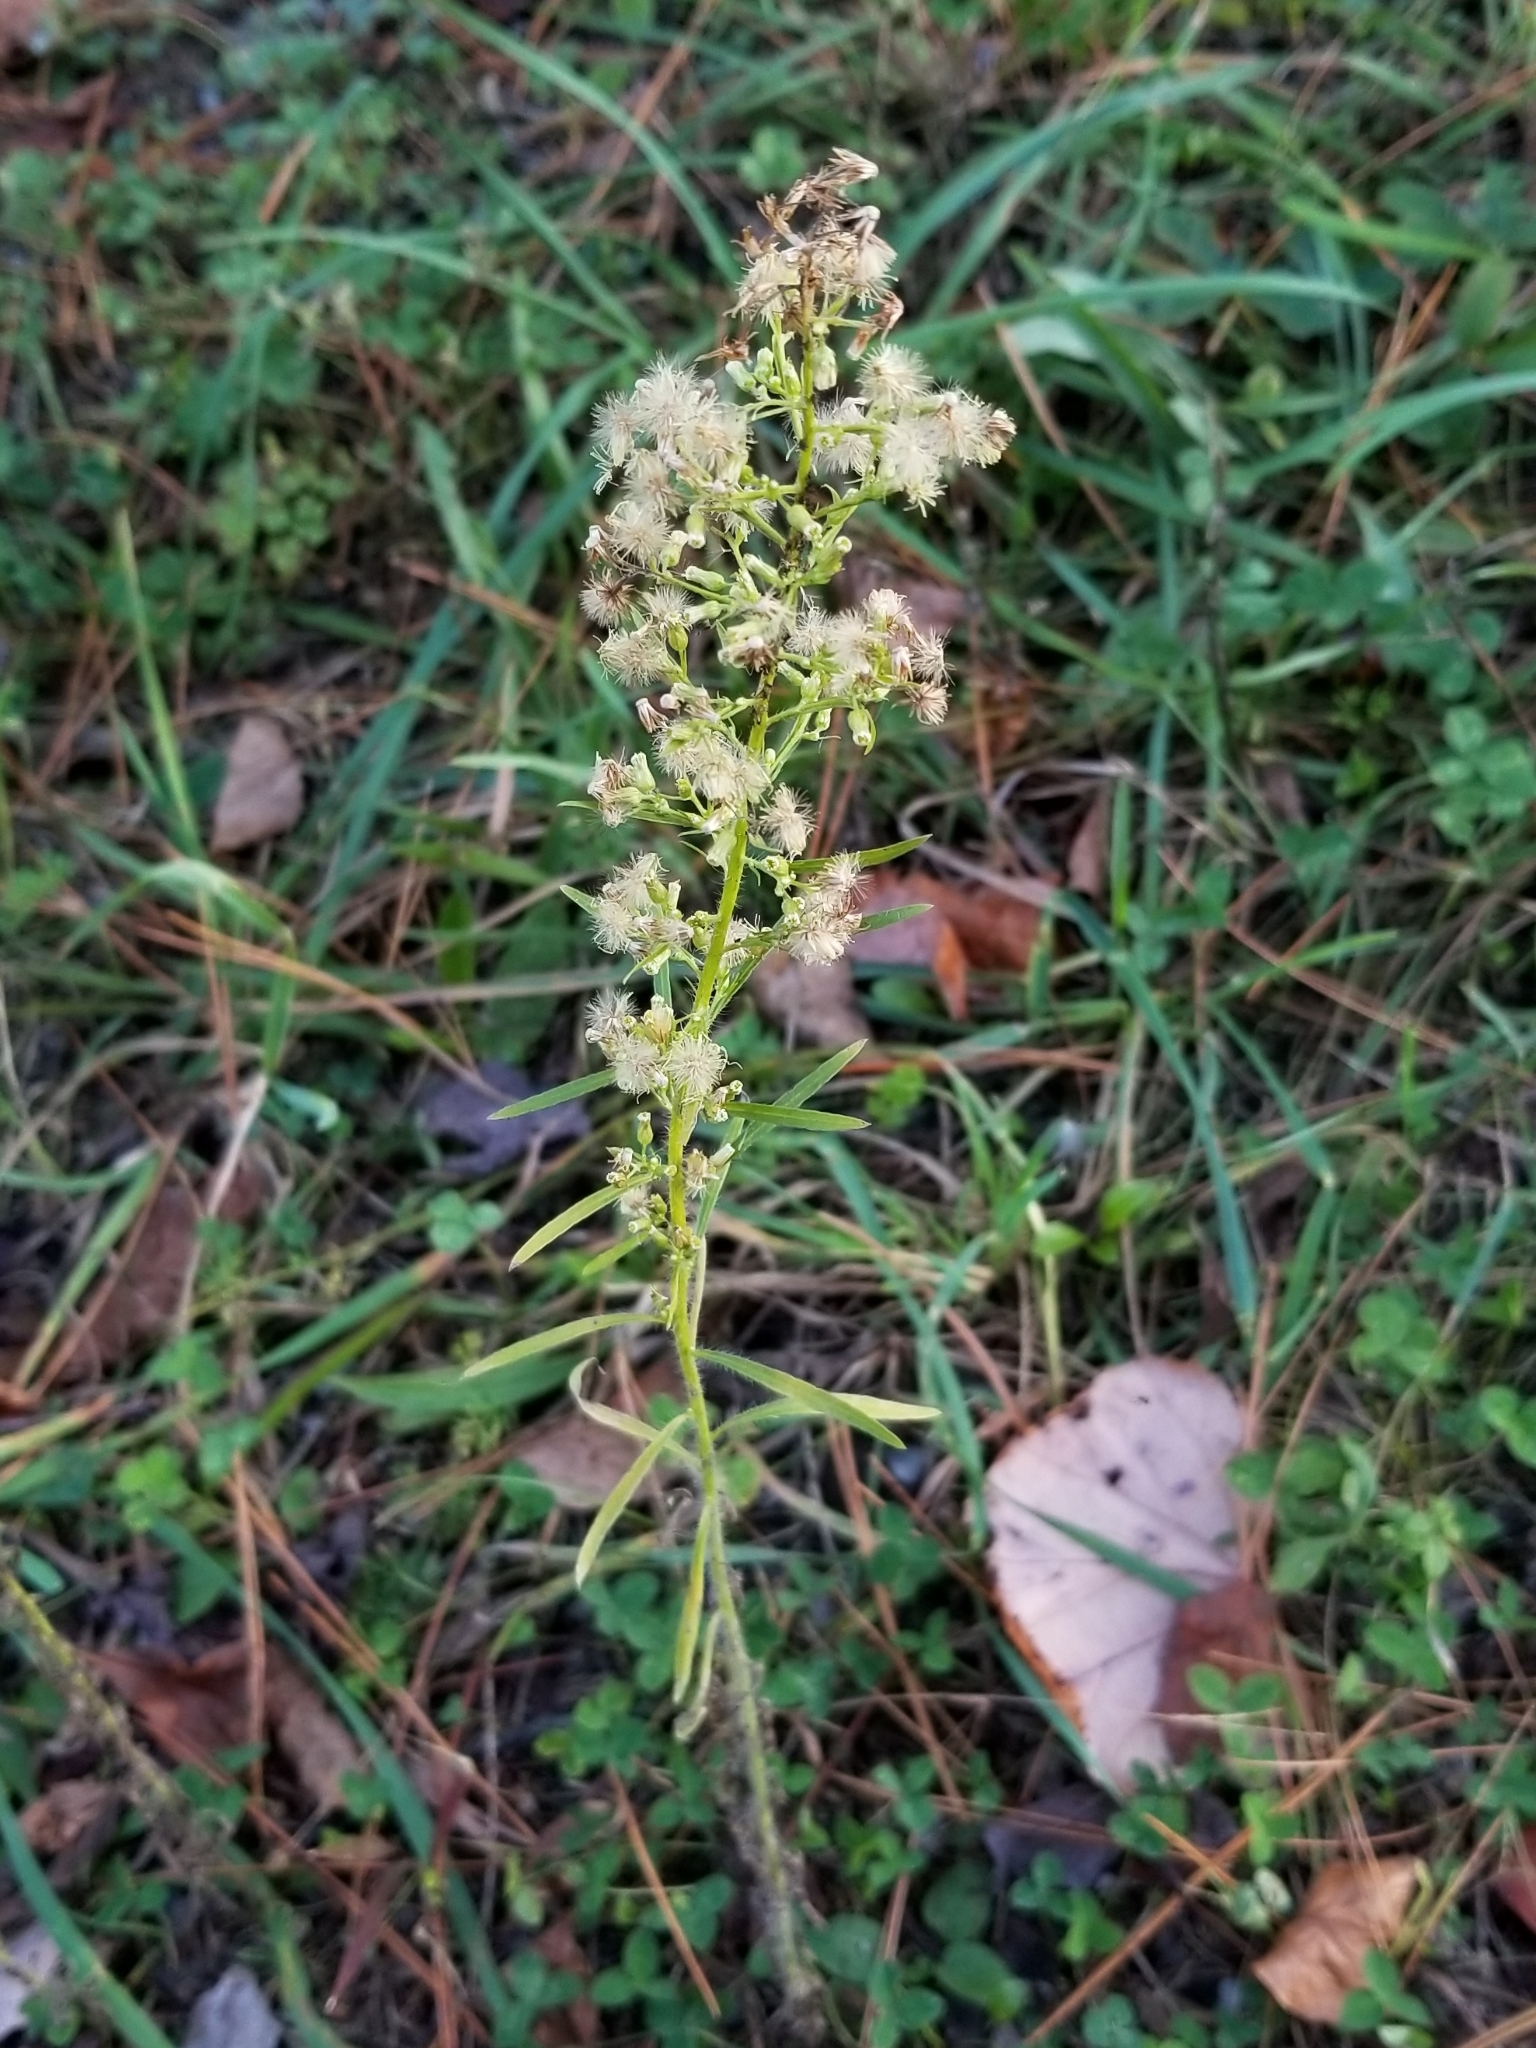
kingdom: Plantae
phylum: Tracheophyta
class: Magnoliopsida
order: Asterales
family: Asteraceae
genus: Erigeron
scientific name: Erigeron canadensis
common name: Canadian fleabane
